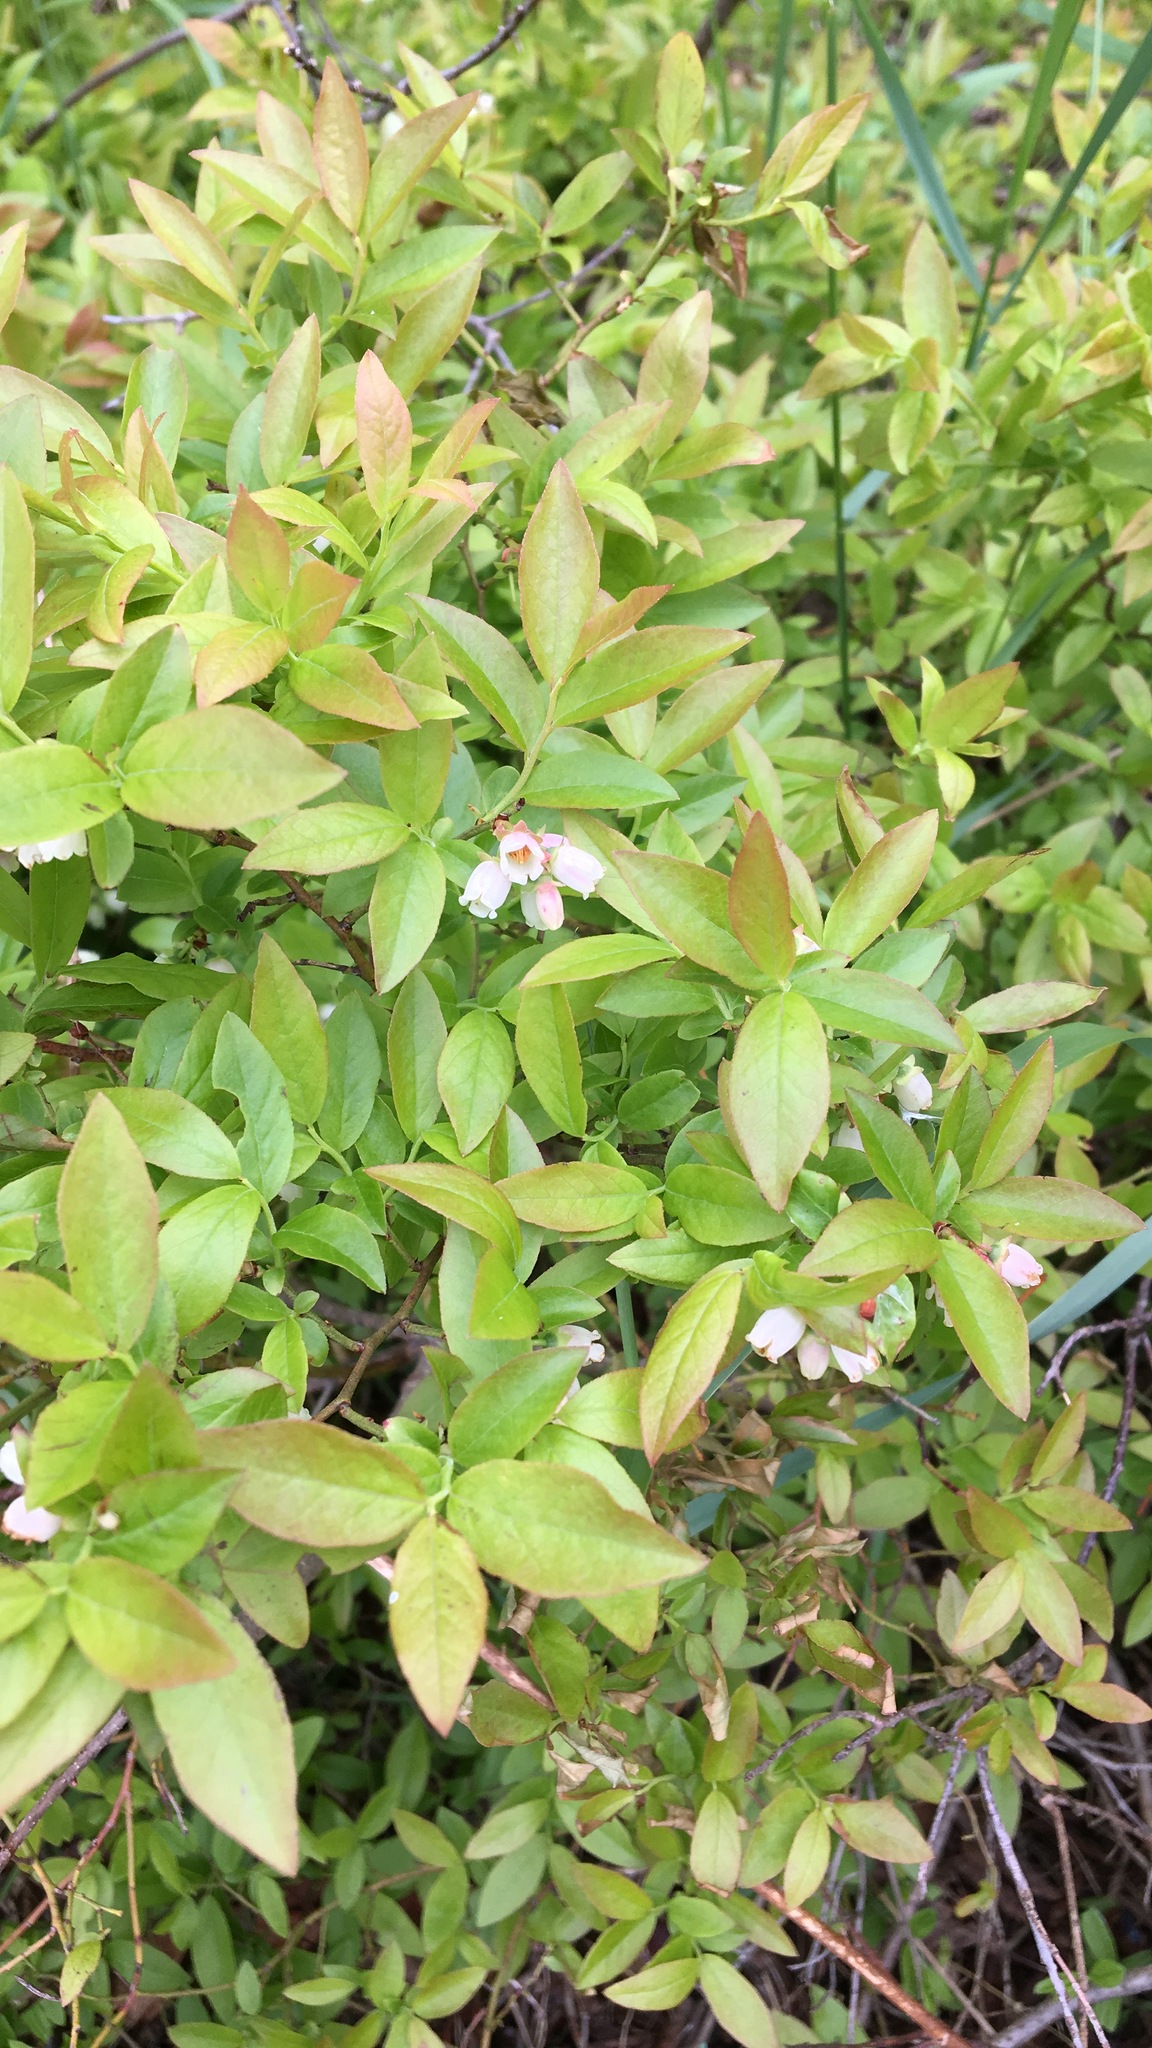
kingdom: Plantae
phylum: Tracheophyta
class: Magnoliopsida
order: Ericales
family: Ericaceae
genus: Vaccinium
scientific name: Vaccinium angustifolium
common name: Early lowbush blueberry
